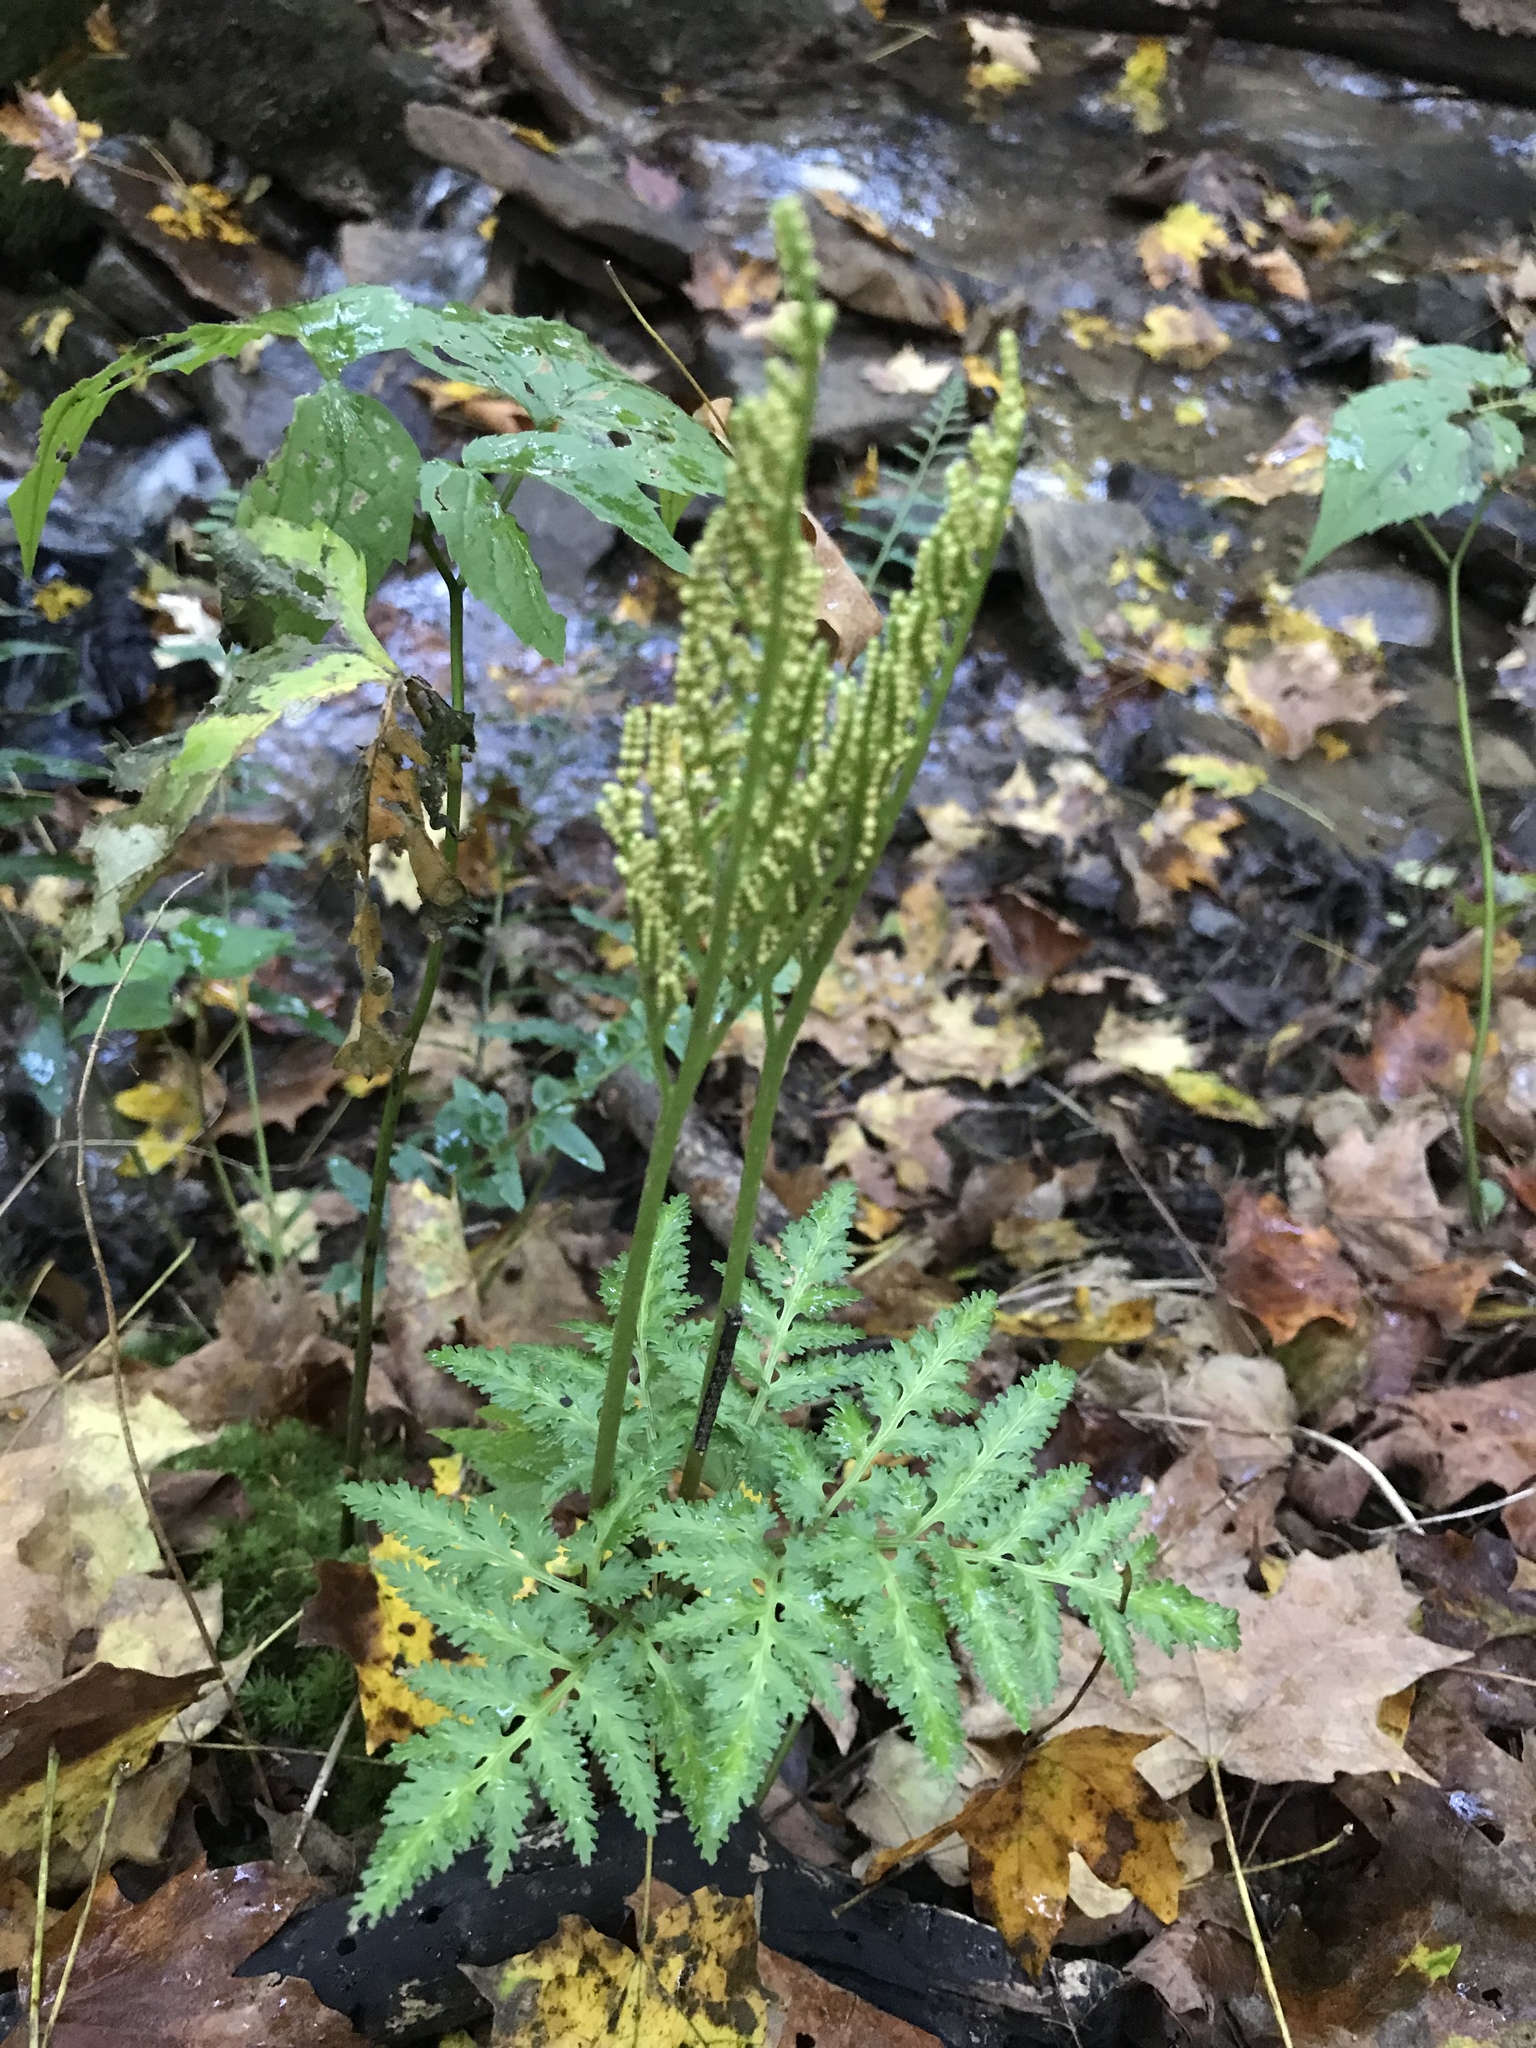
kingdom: Plantae
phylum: Tracheophyta
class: Polypodiopsida
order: Ophioglossales
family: Ophioglossaceae
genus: Sceptridium
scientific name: Sceptridium dissectum
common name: Cut-leaved grapefern
